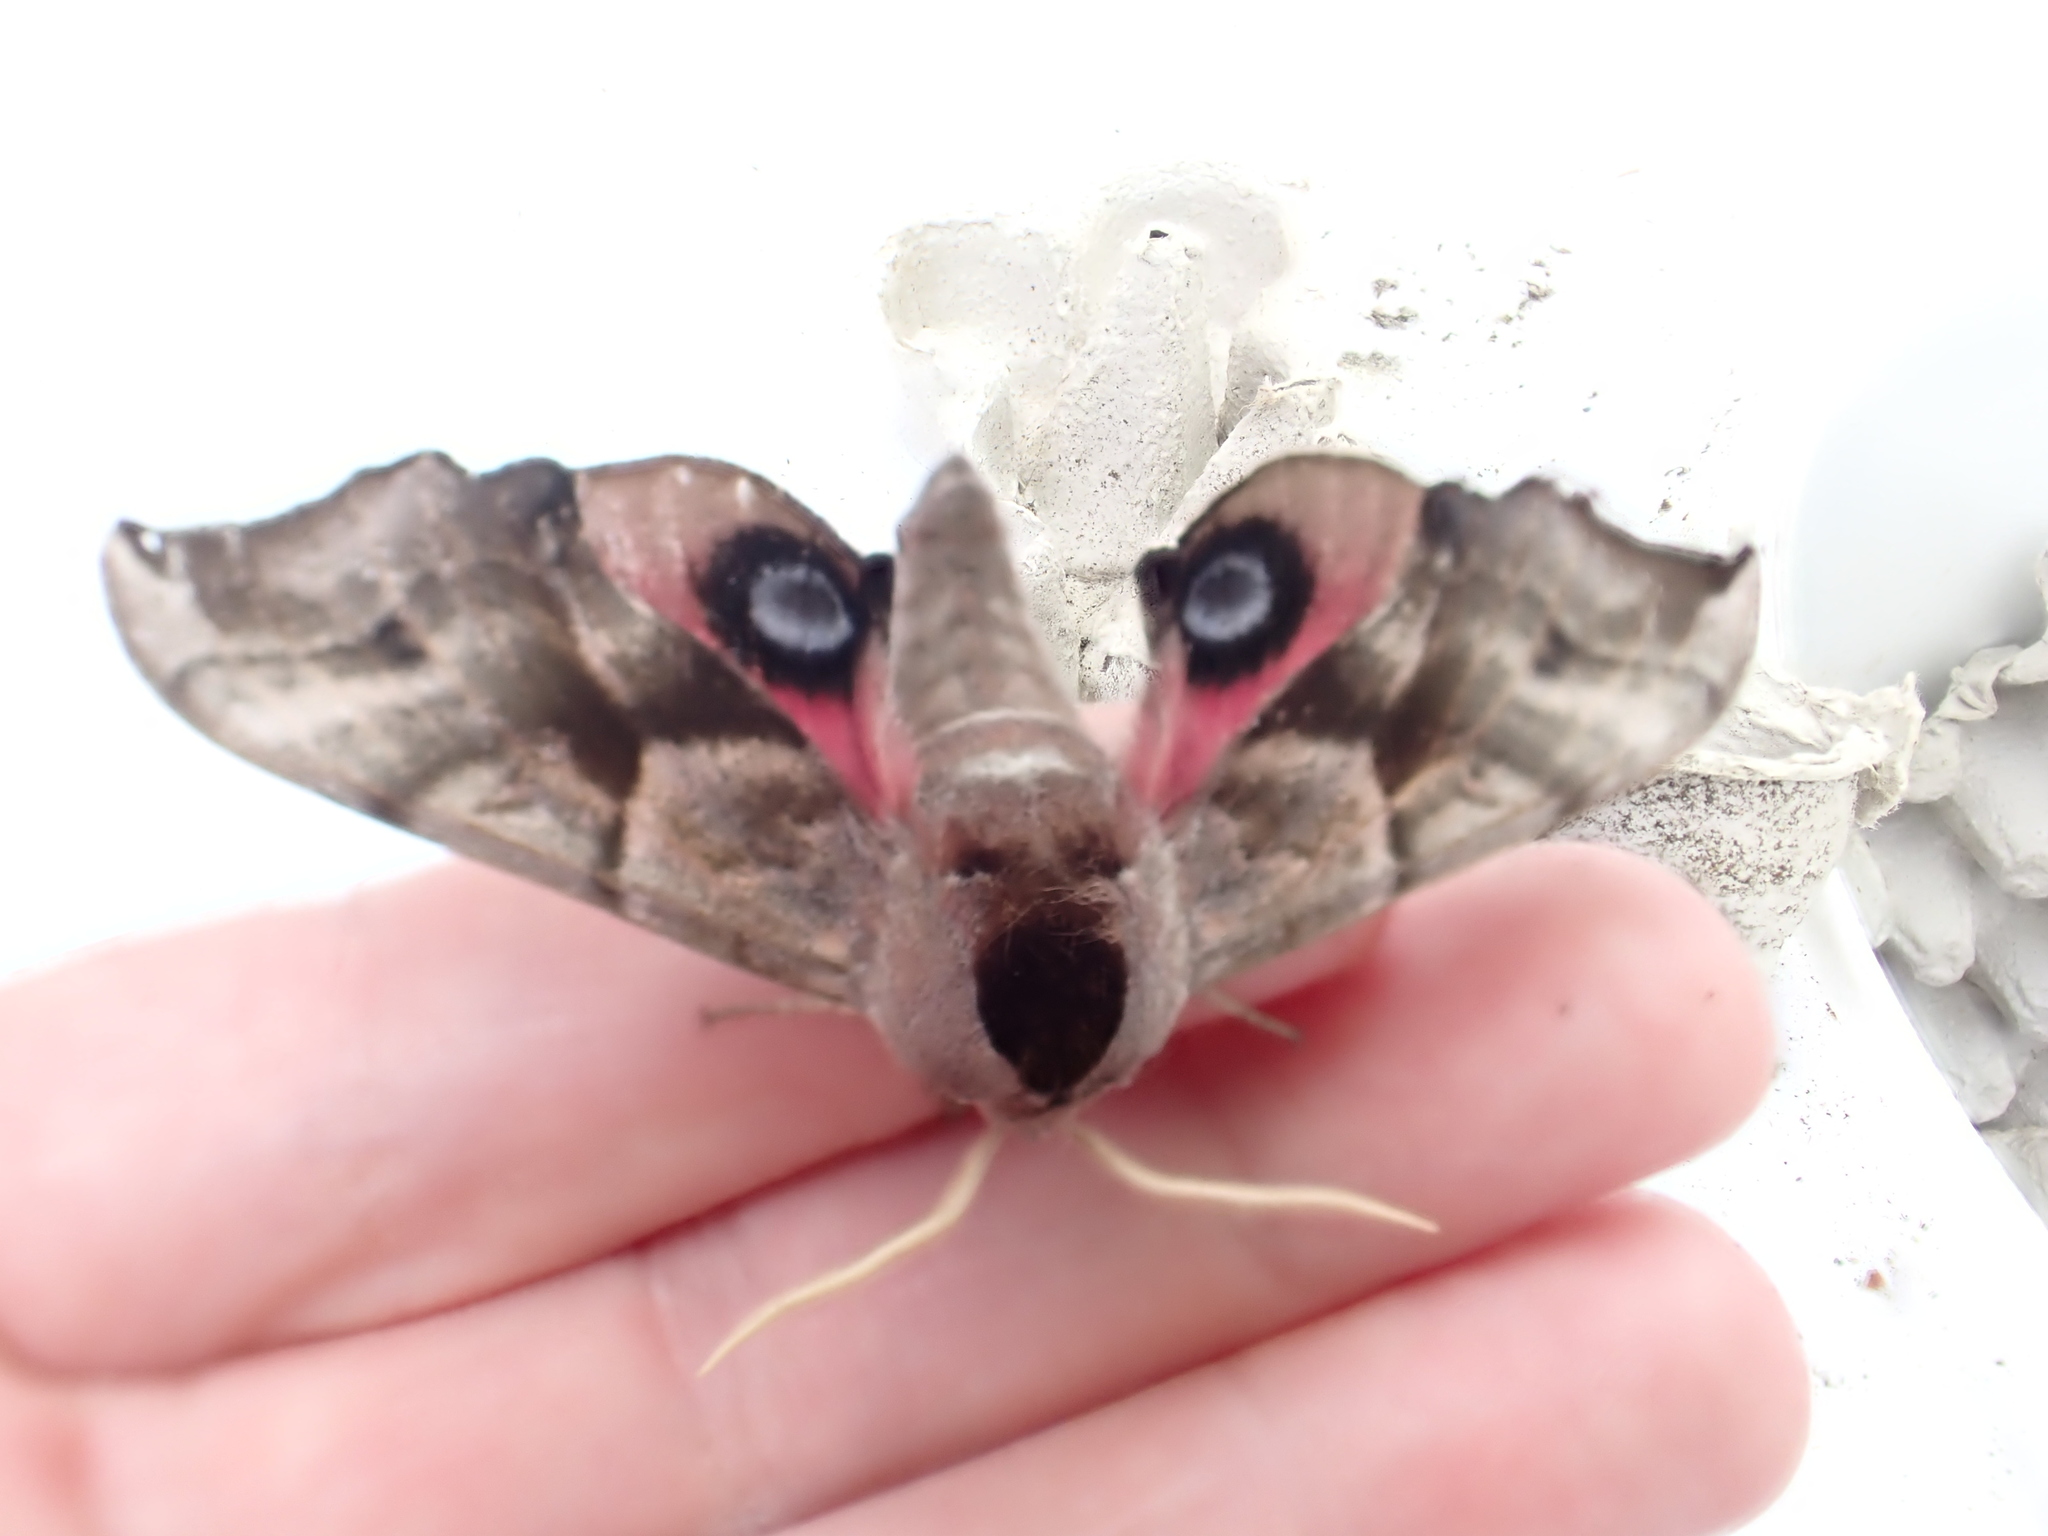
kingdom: Animalia
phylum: Arthropoda
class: Insecta
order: Lepidoptera
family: Sphingidae
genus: Smerinthus
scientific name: Smerinthus ocellata
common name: Eyed hawk-moth
